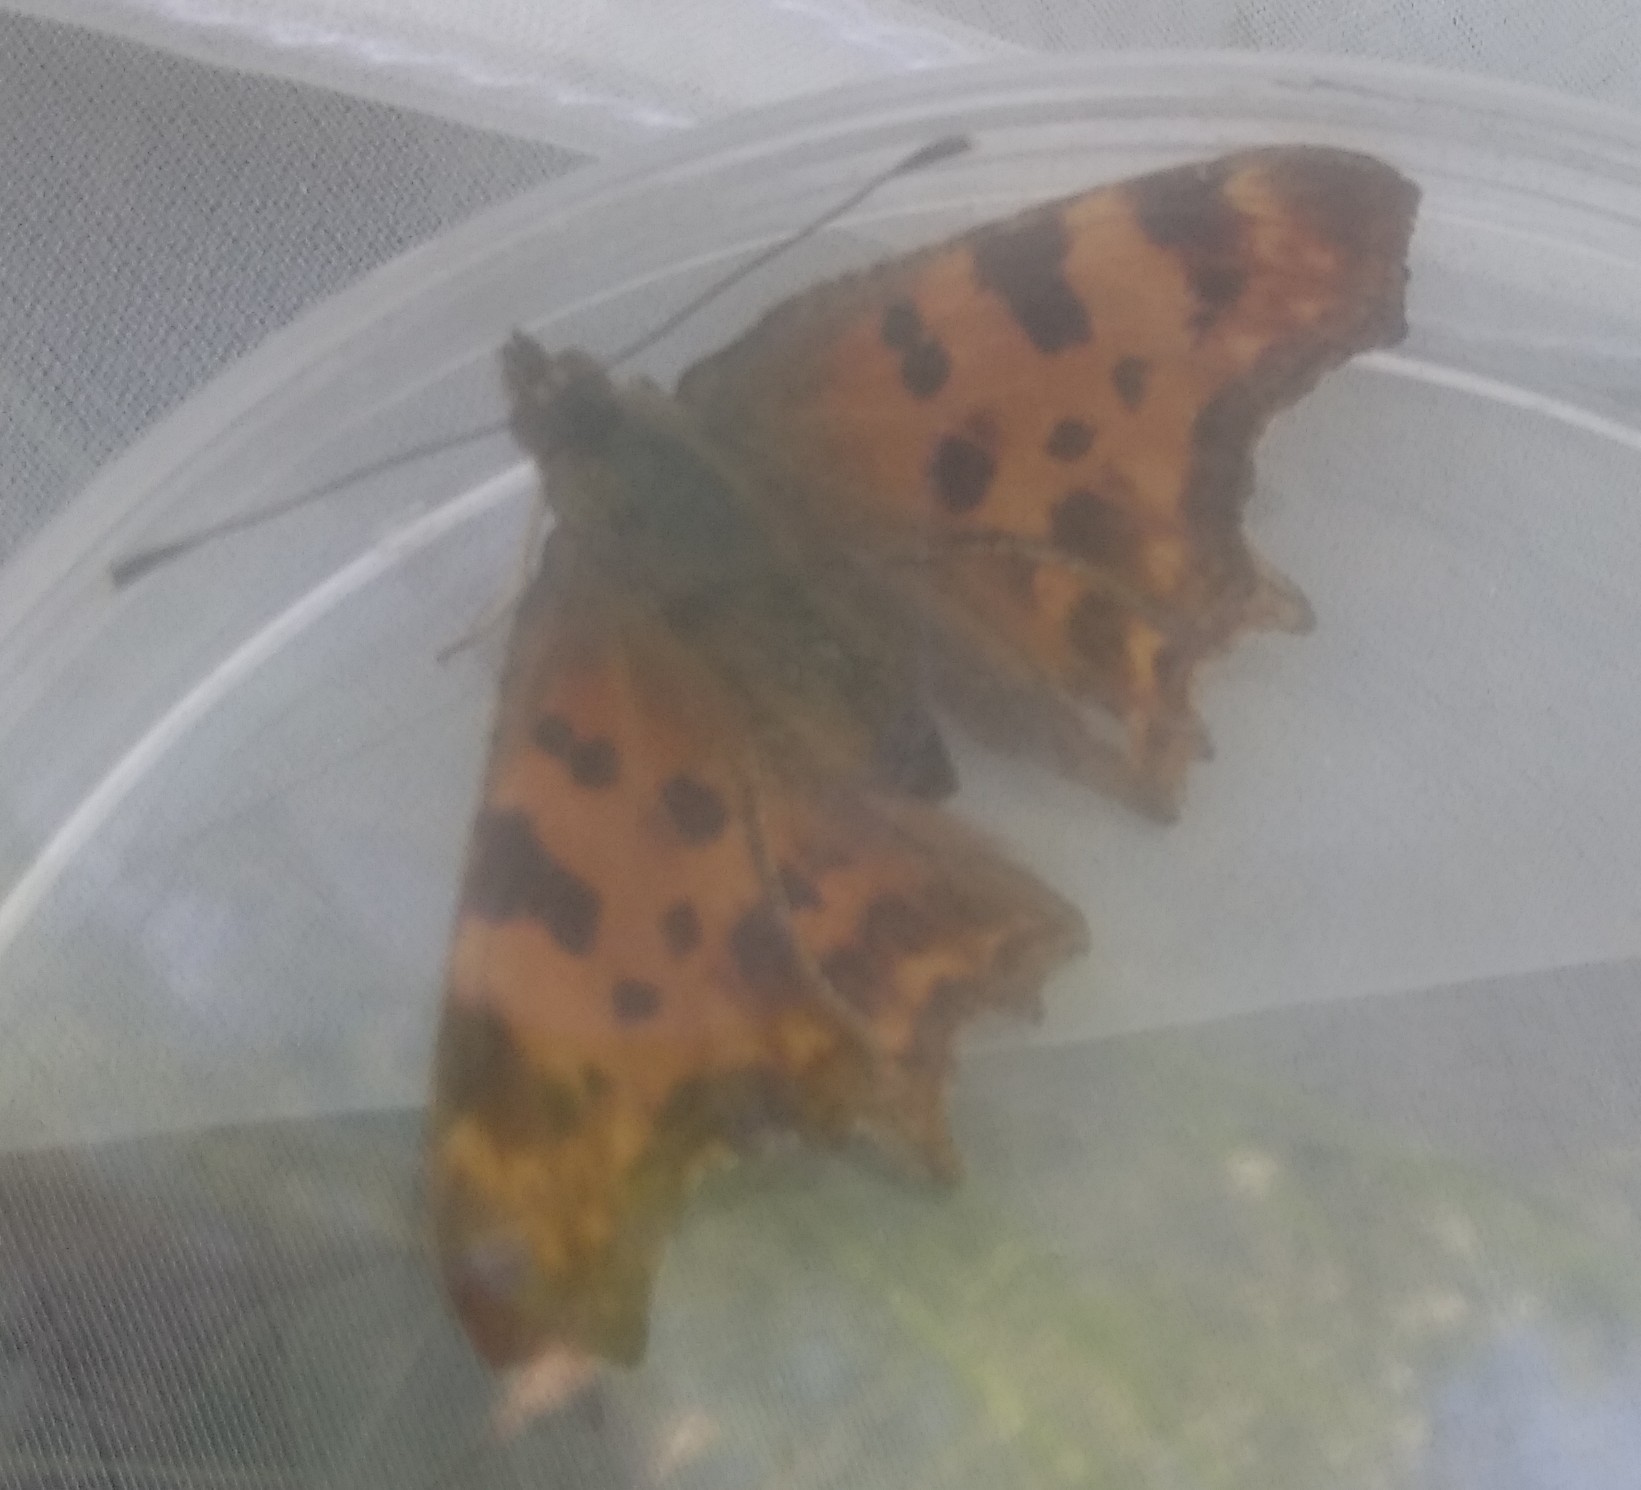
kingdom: Animalia
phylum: Arthropoda
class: Insecta
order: Lepidoptera
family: Nymphalidae
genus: Polygonia
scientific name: Polygonia c-album
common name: Comma
